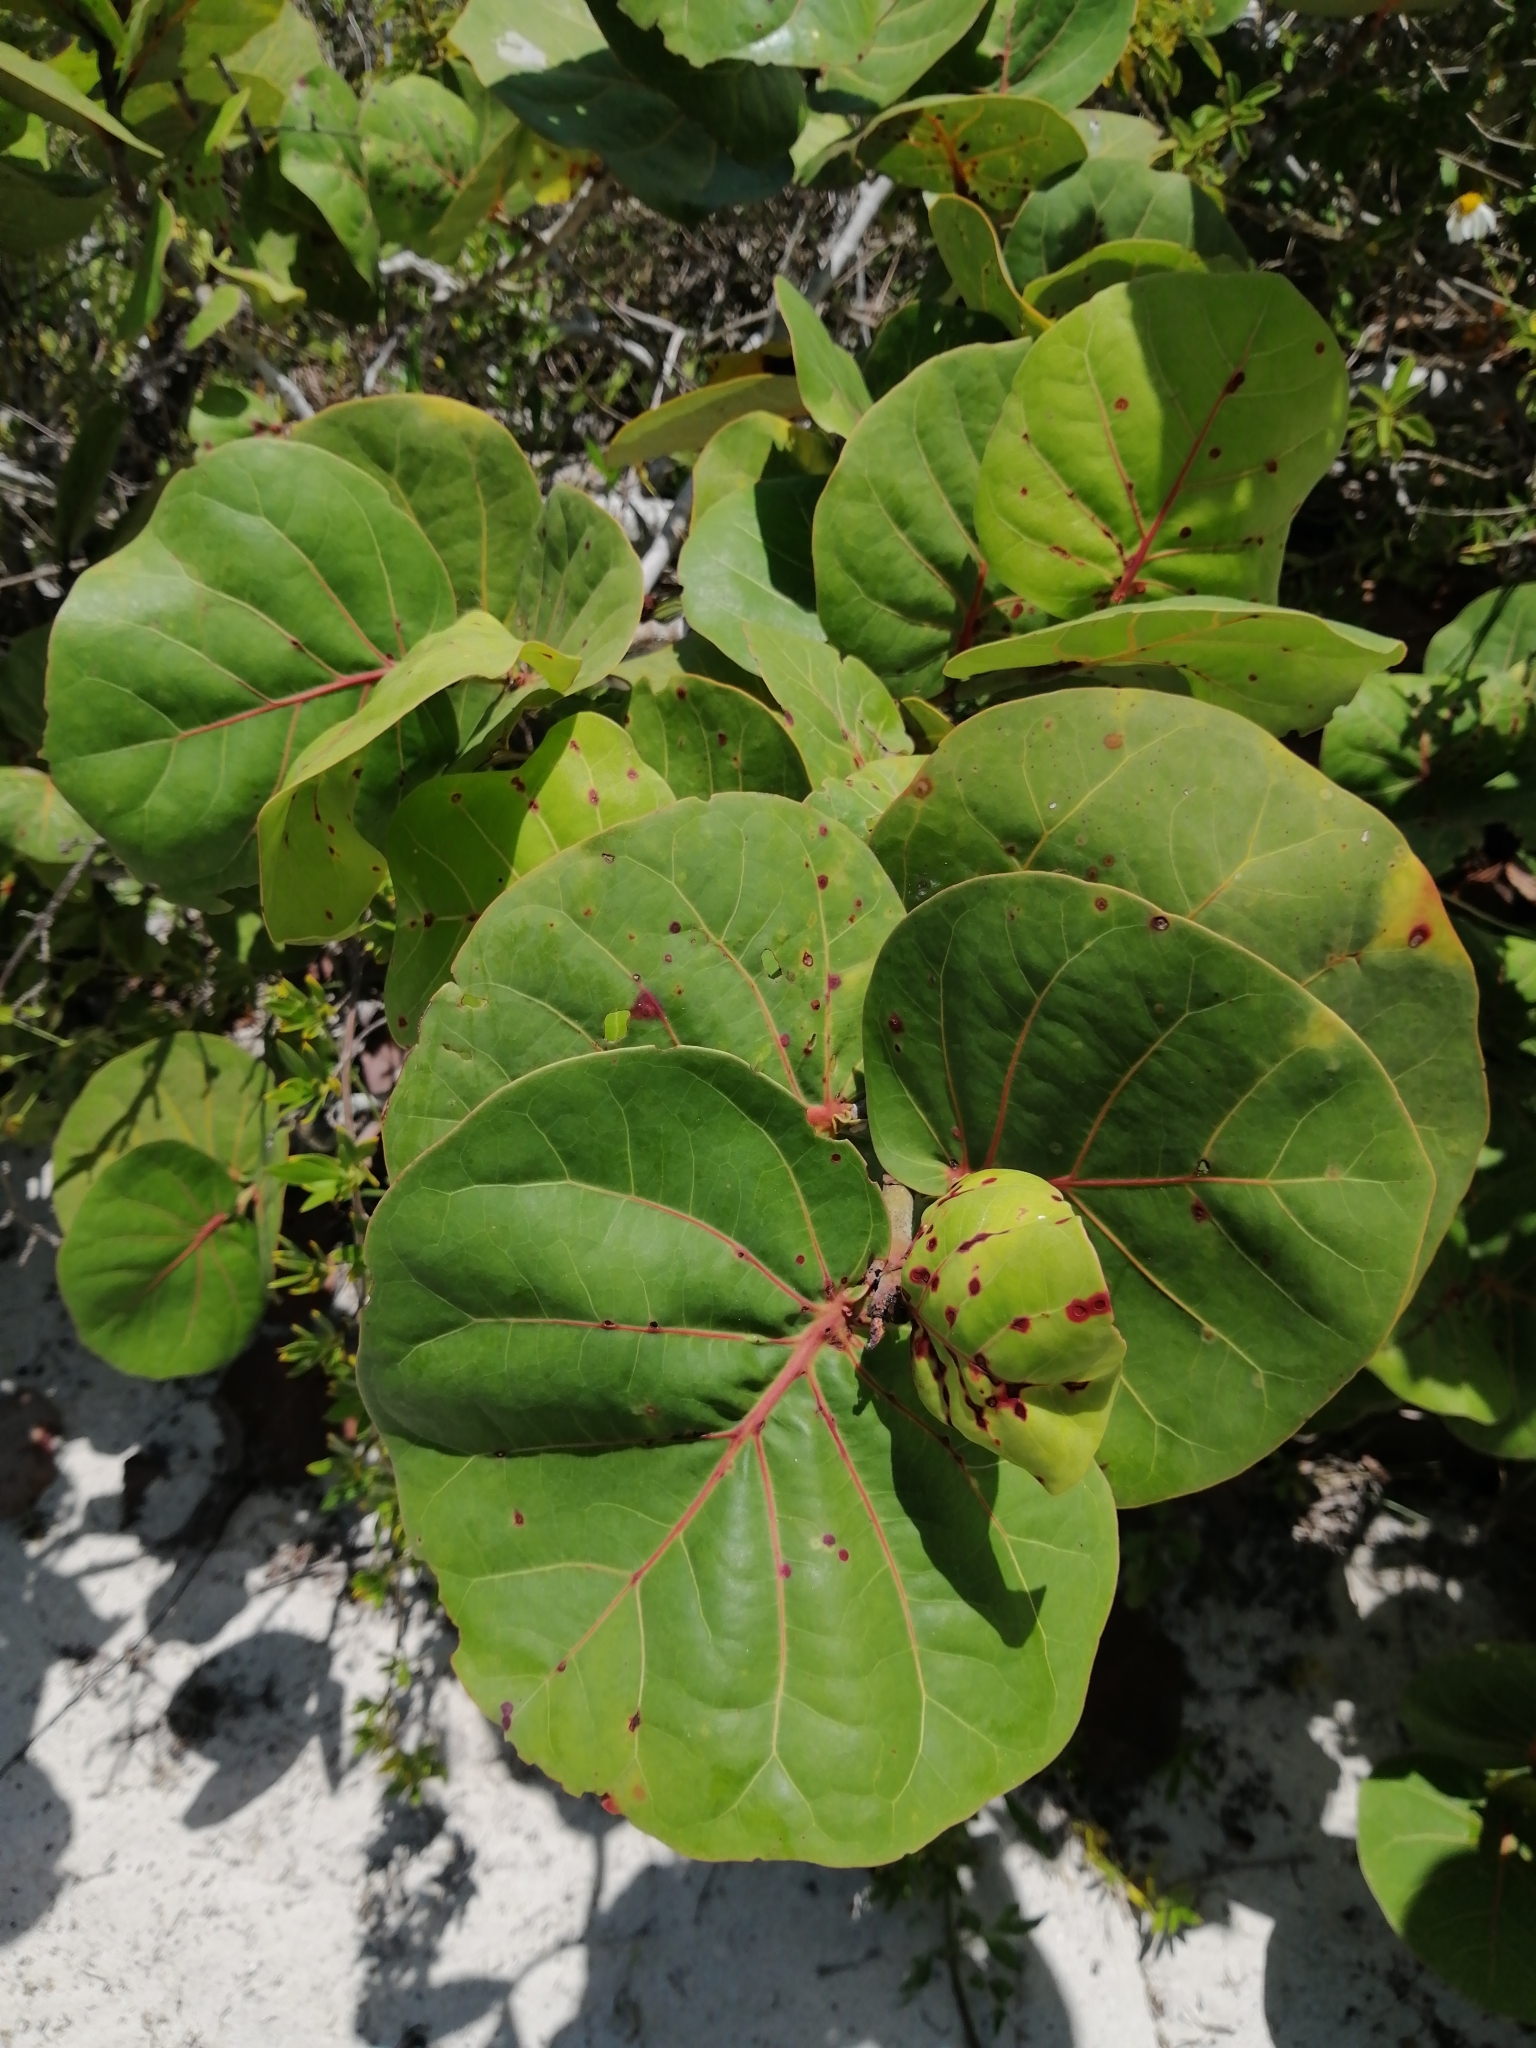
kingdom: Plantae
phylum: Tracheophyta
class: Magnoliopsida
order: Caryophyllales
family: Polygonaceae
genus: Coccoloba
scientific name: Coccoloba uvifera
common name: Seagrape
